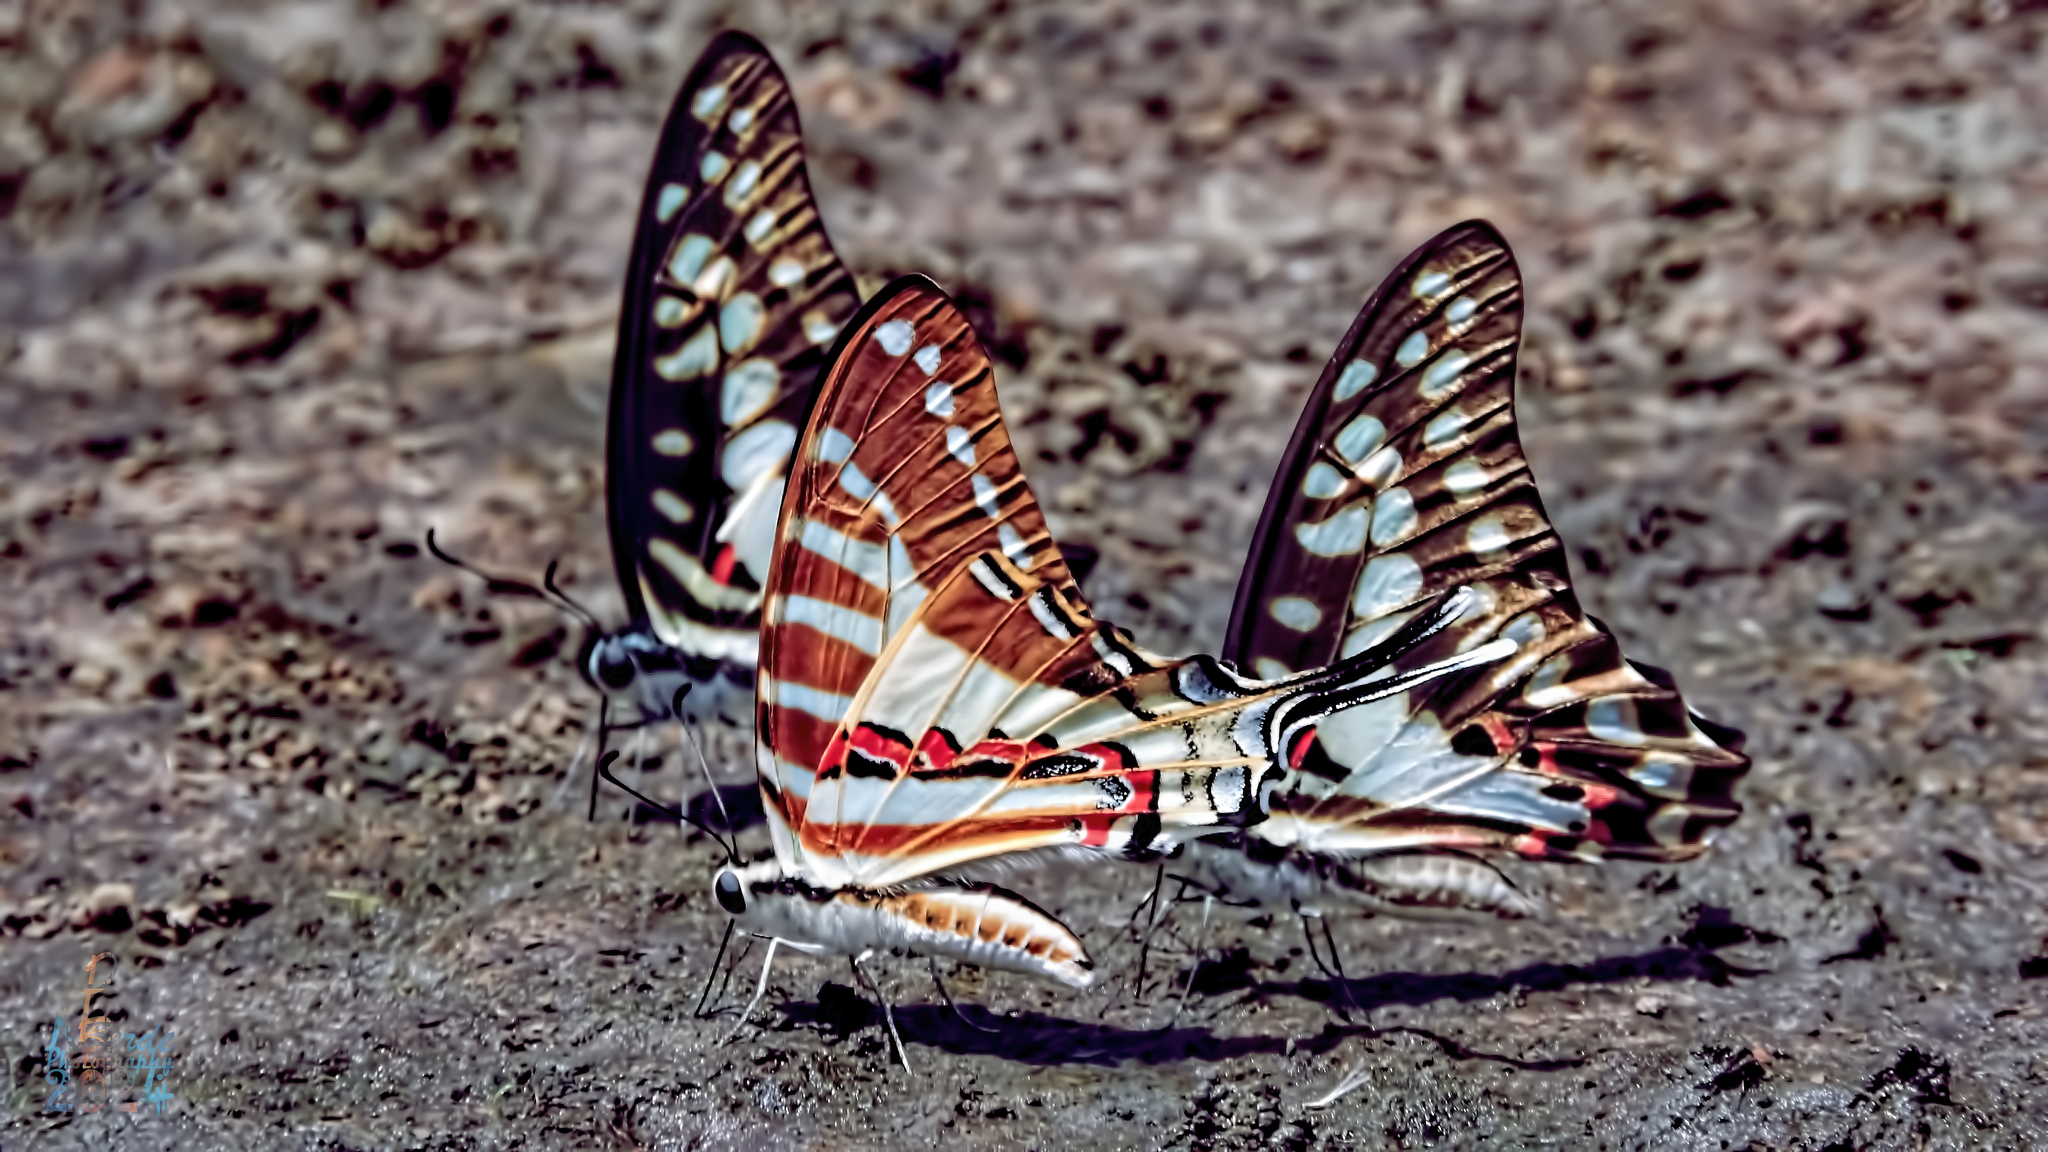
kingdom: Animalia
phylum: Arthropoda
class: Insecta
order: Lepidoptera
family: Papilionidae
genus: Graphium
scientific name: Graphium doson
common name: Common jay
